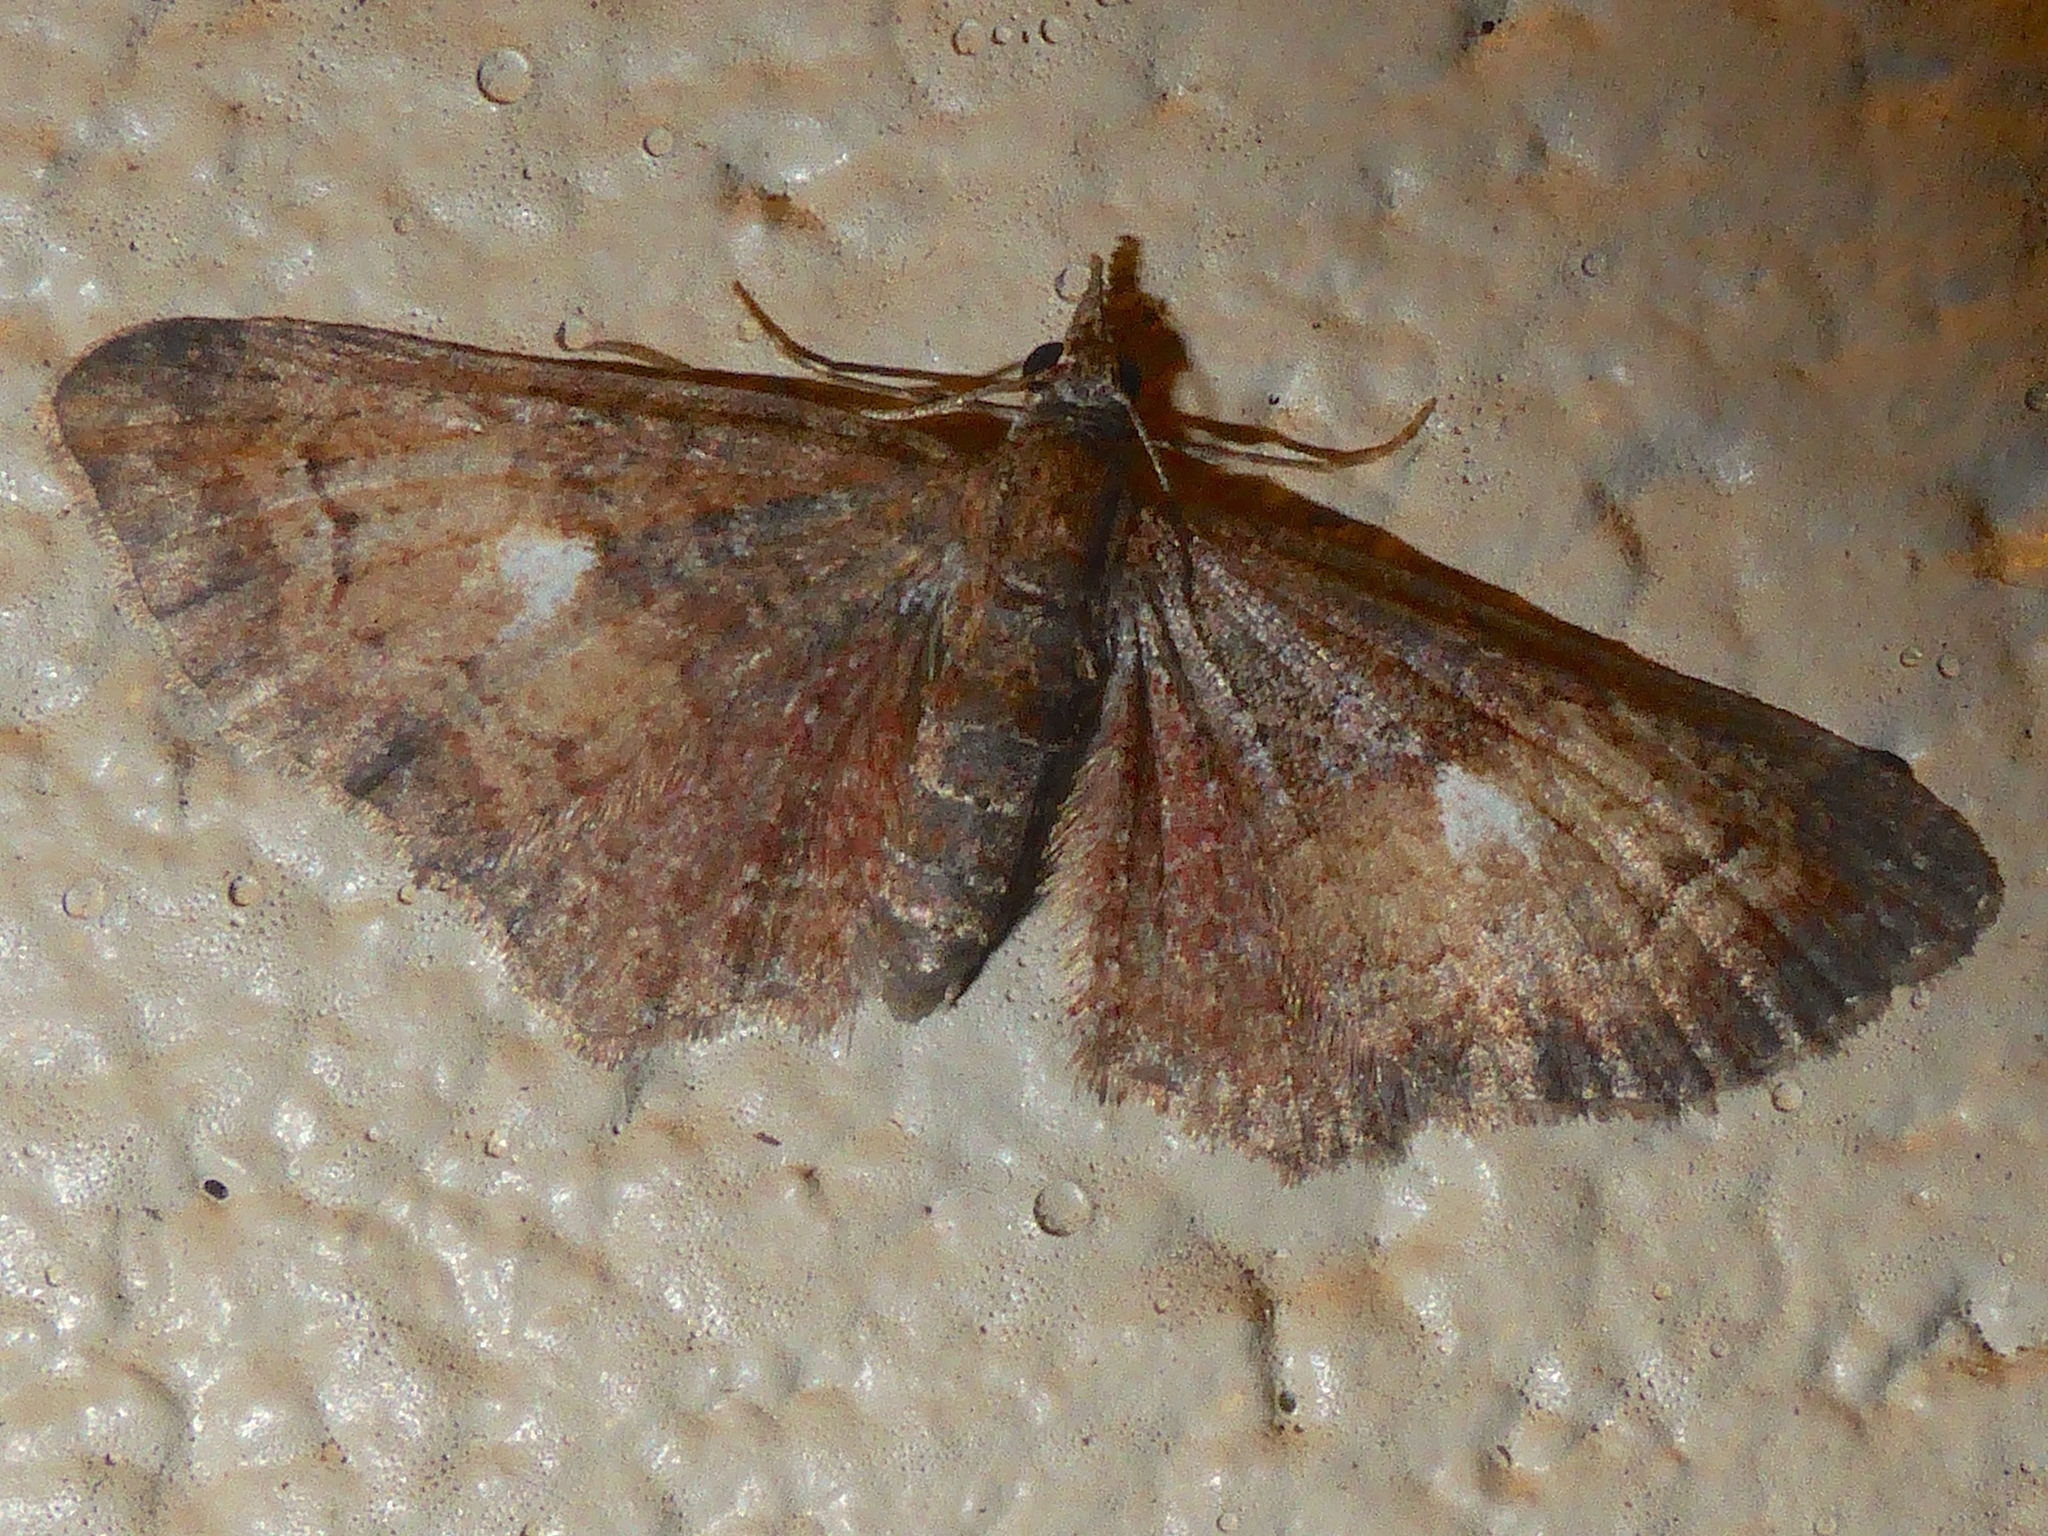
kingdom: Animalia
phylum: Arthropoda
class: Insecta
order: Lepidoptera
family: Geometridae
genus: Pasiphila
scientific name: Pasiphila lunata
